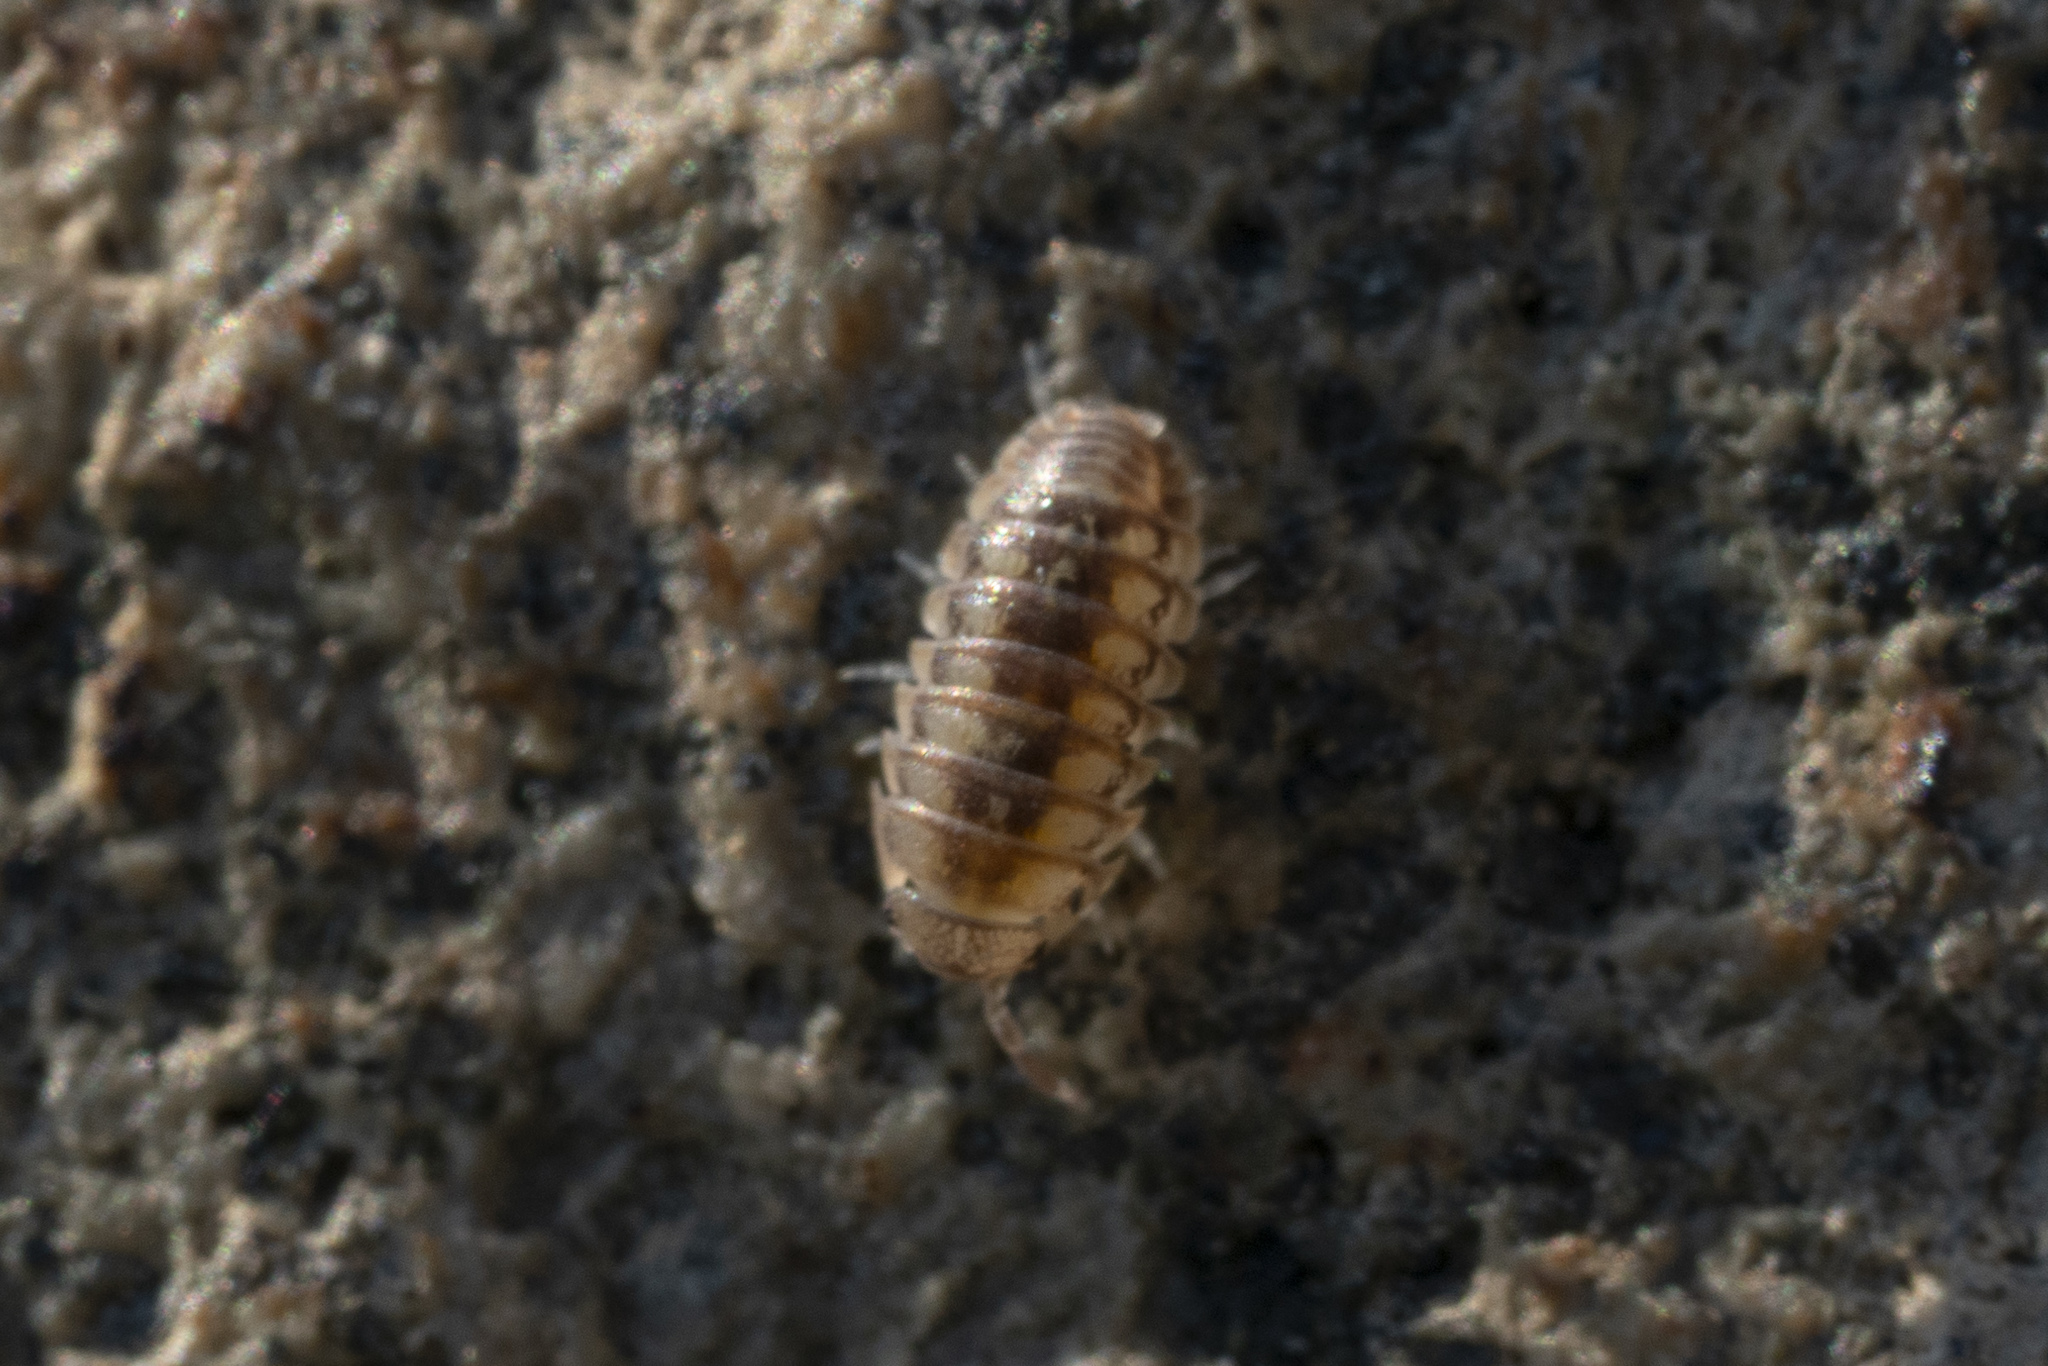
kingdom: Animalia
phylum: Arthropoda
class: Malacostraca
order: Isopoda
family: Armadillidiidae
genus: Armadillidium
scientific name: Armadillidium granulatum
